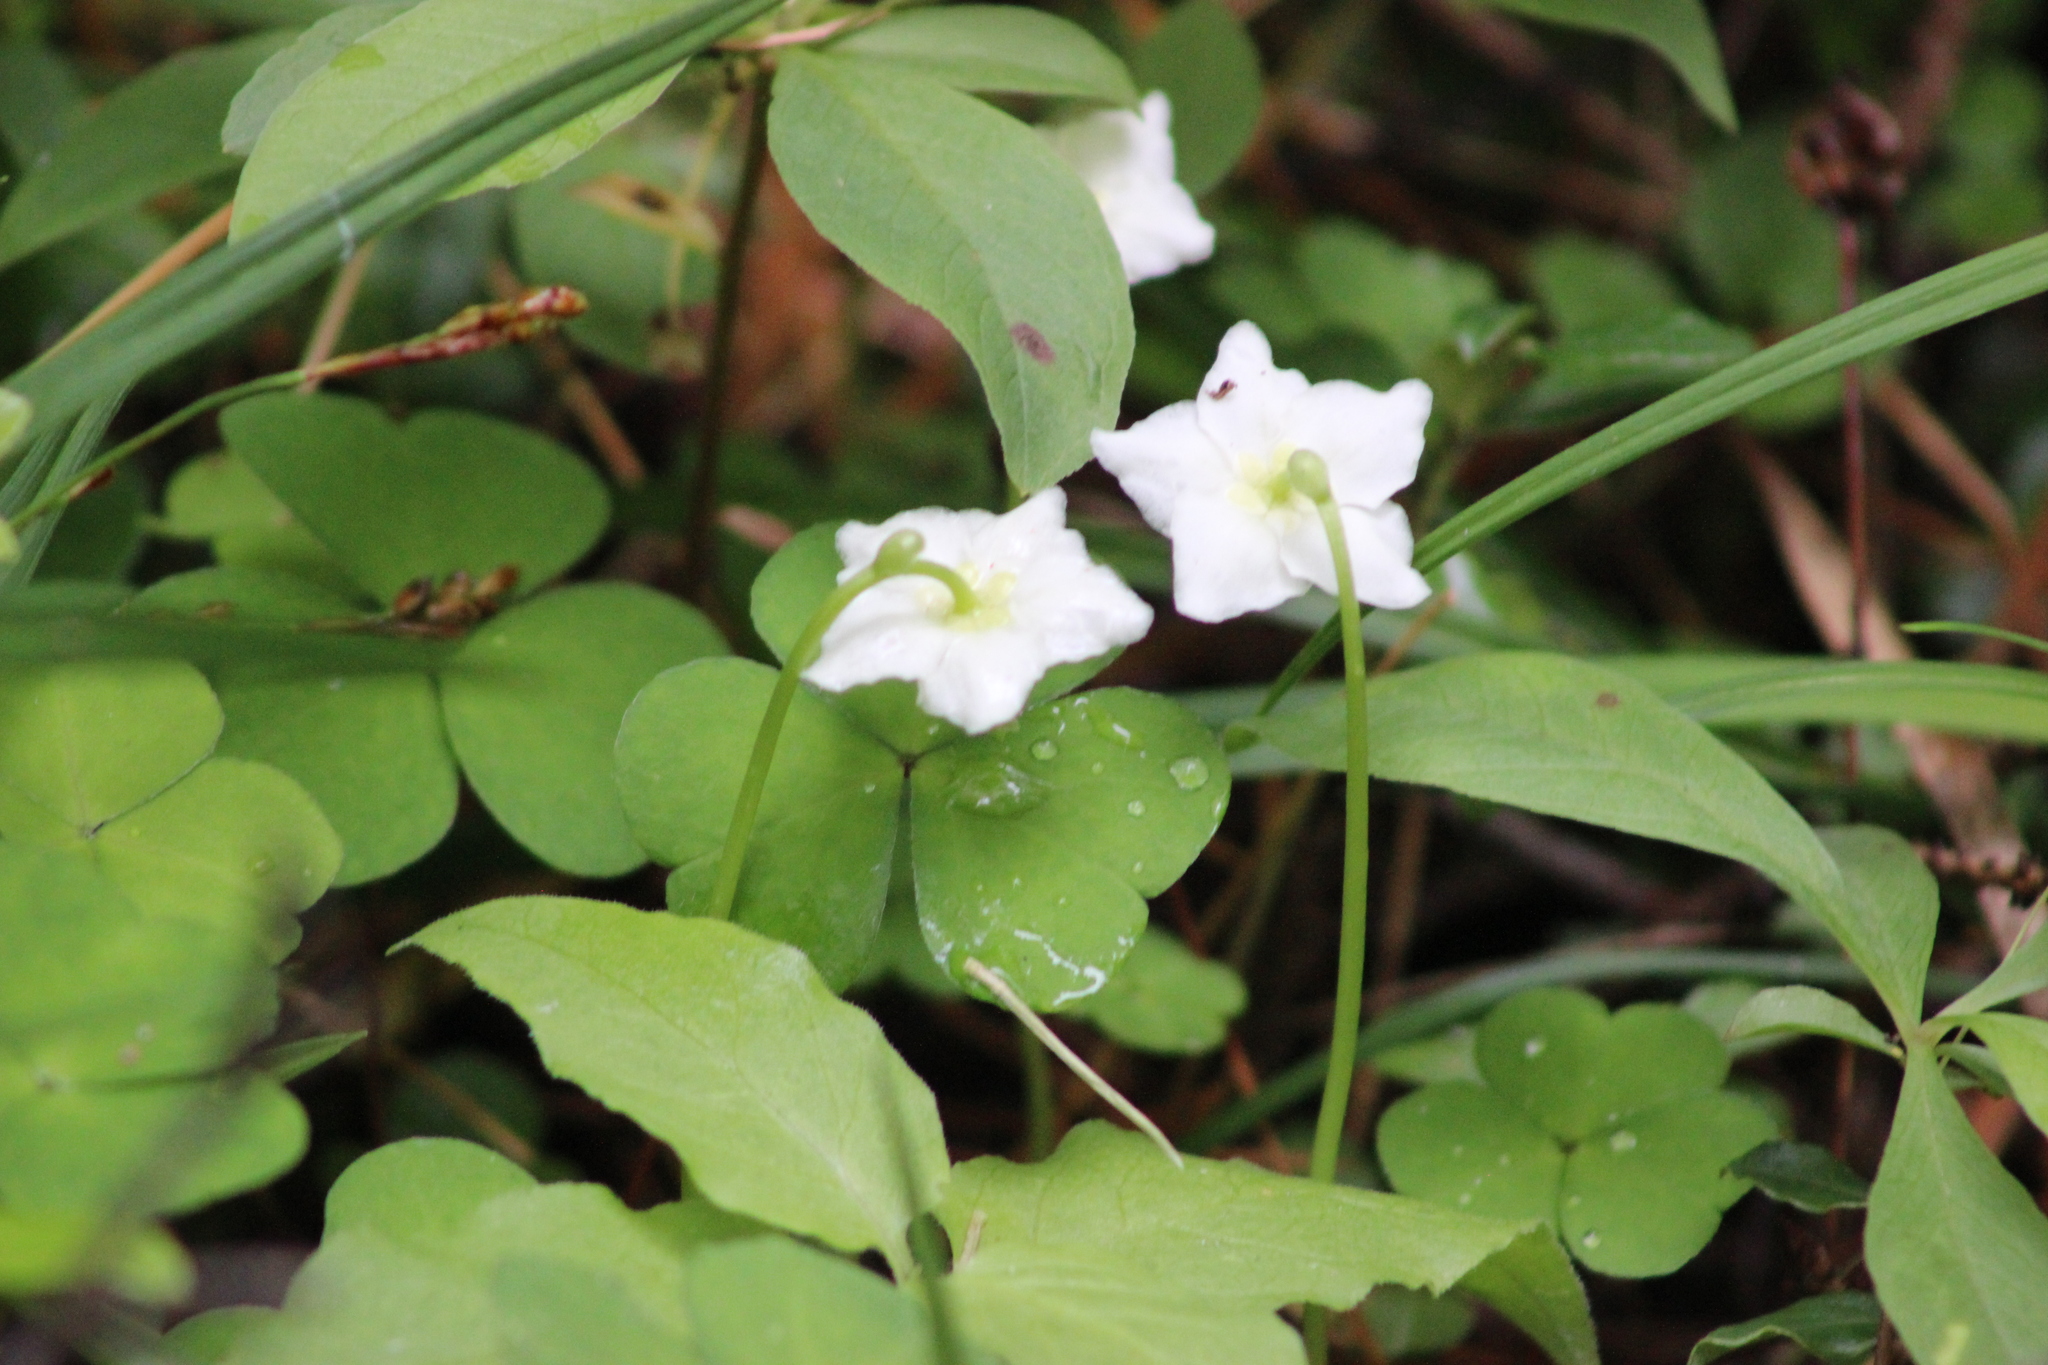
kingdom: Plantae
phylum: Tracheophyta
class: Magnoliopsida
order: Ericales
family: Ericaceae
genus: Moneses
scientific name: Moneses uniflora
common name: One-flowered wintergreen
